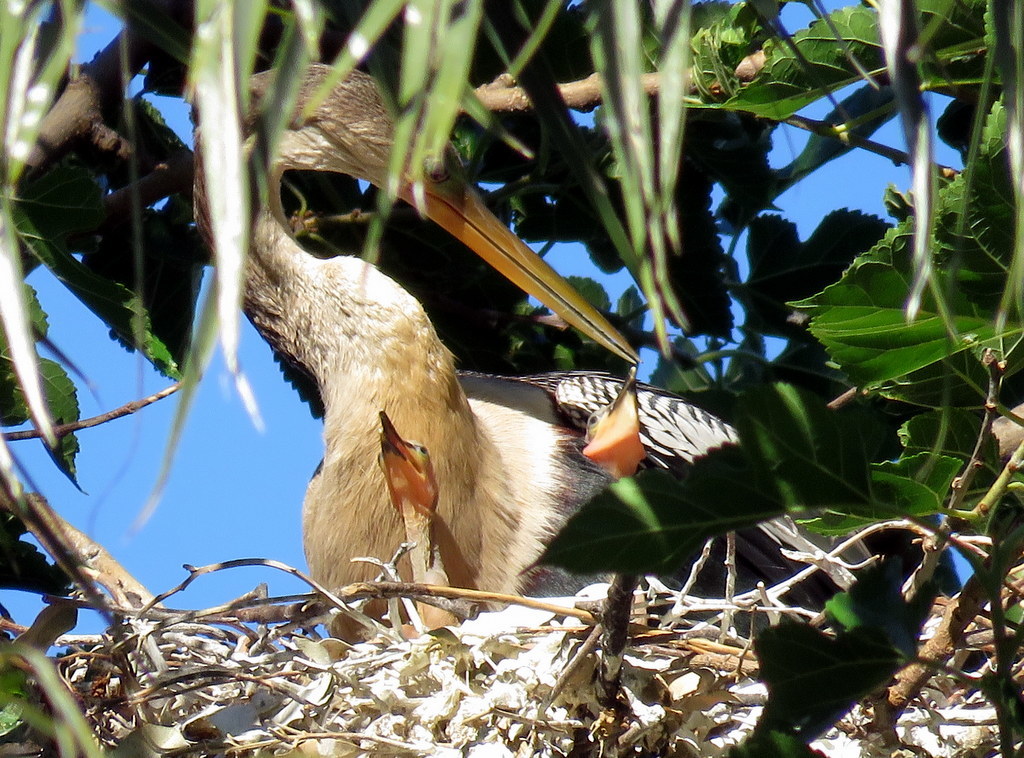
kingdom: Animalia
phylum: Chordata
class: Aves
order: Suliformes
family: Anhingidae
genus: Anhinga
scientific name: Anhinga anhinga
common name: Anhinga
